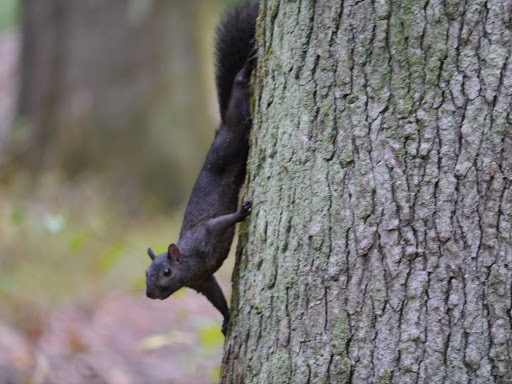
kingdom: Animalia
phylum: Chordata
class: Mammalia
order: Rodentia
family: Sciuridae
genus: Sciurus
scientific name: Sciurus carolinensis
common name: Eastern gray squirrel
